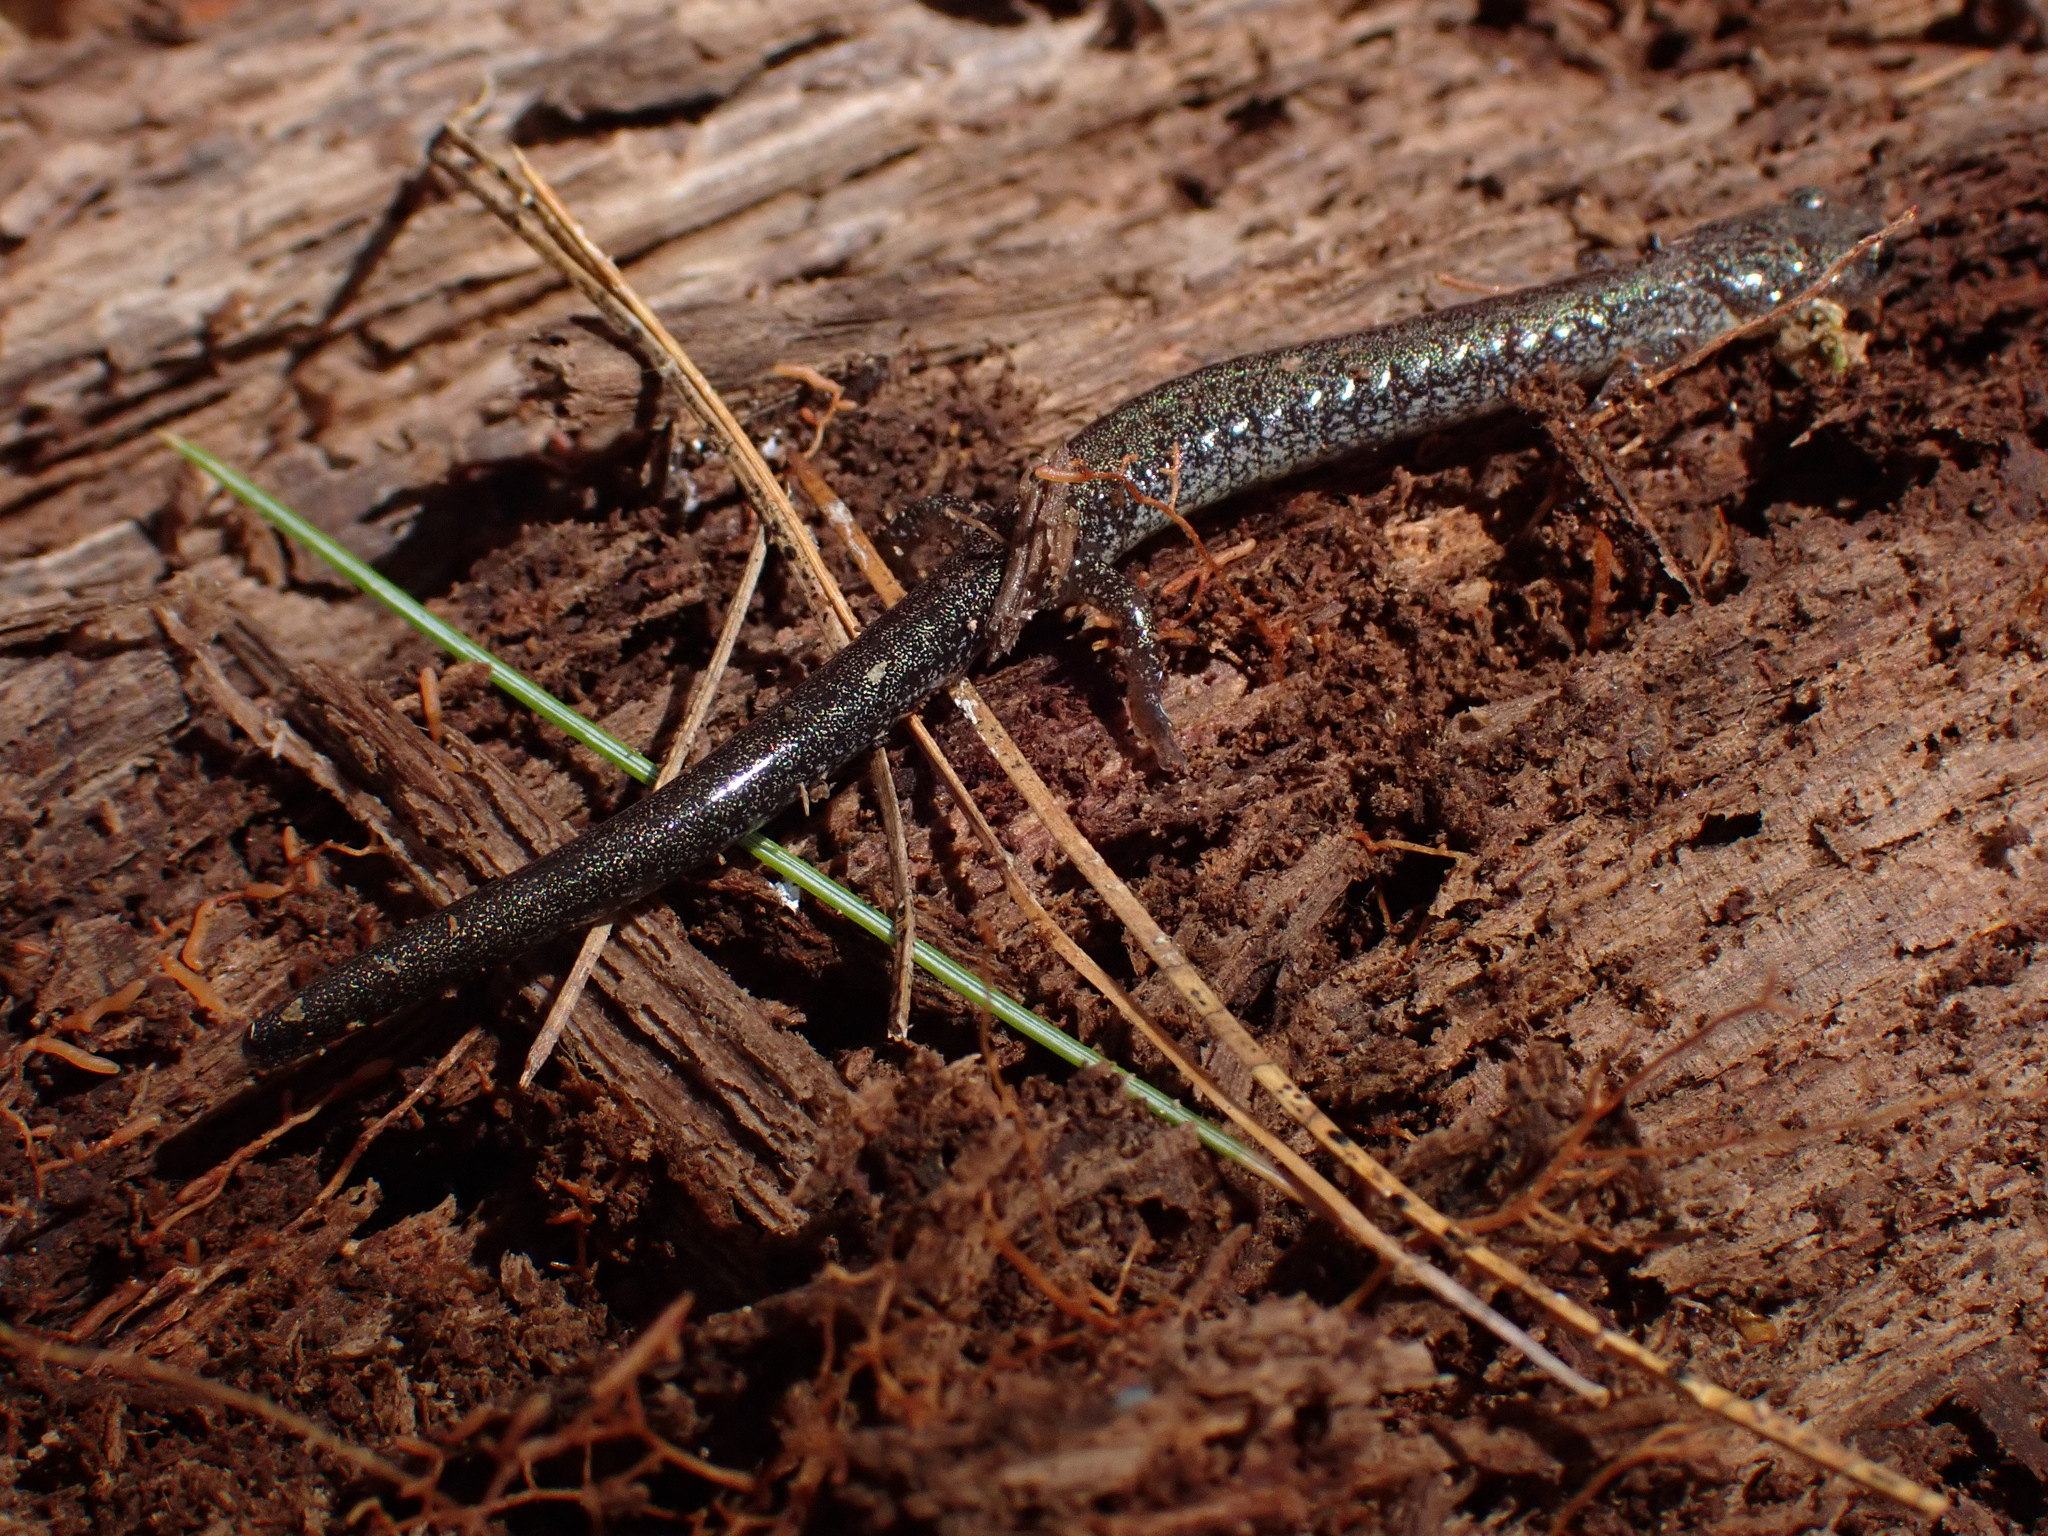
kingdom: Animalia
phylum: Chordata
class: Amphibia
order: Caudata
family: Plethodontidae
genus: Plethodon
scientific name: Plethodon cinereus
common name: Redback salamander
